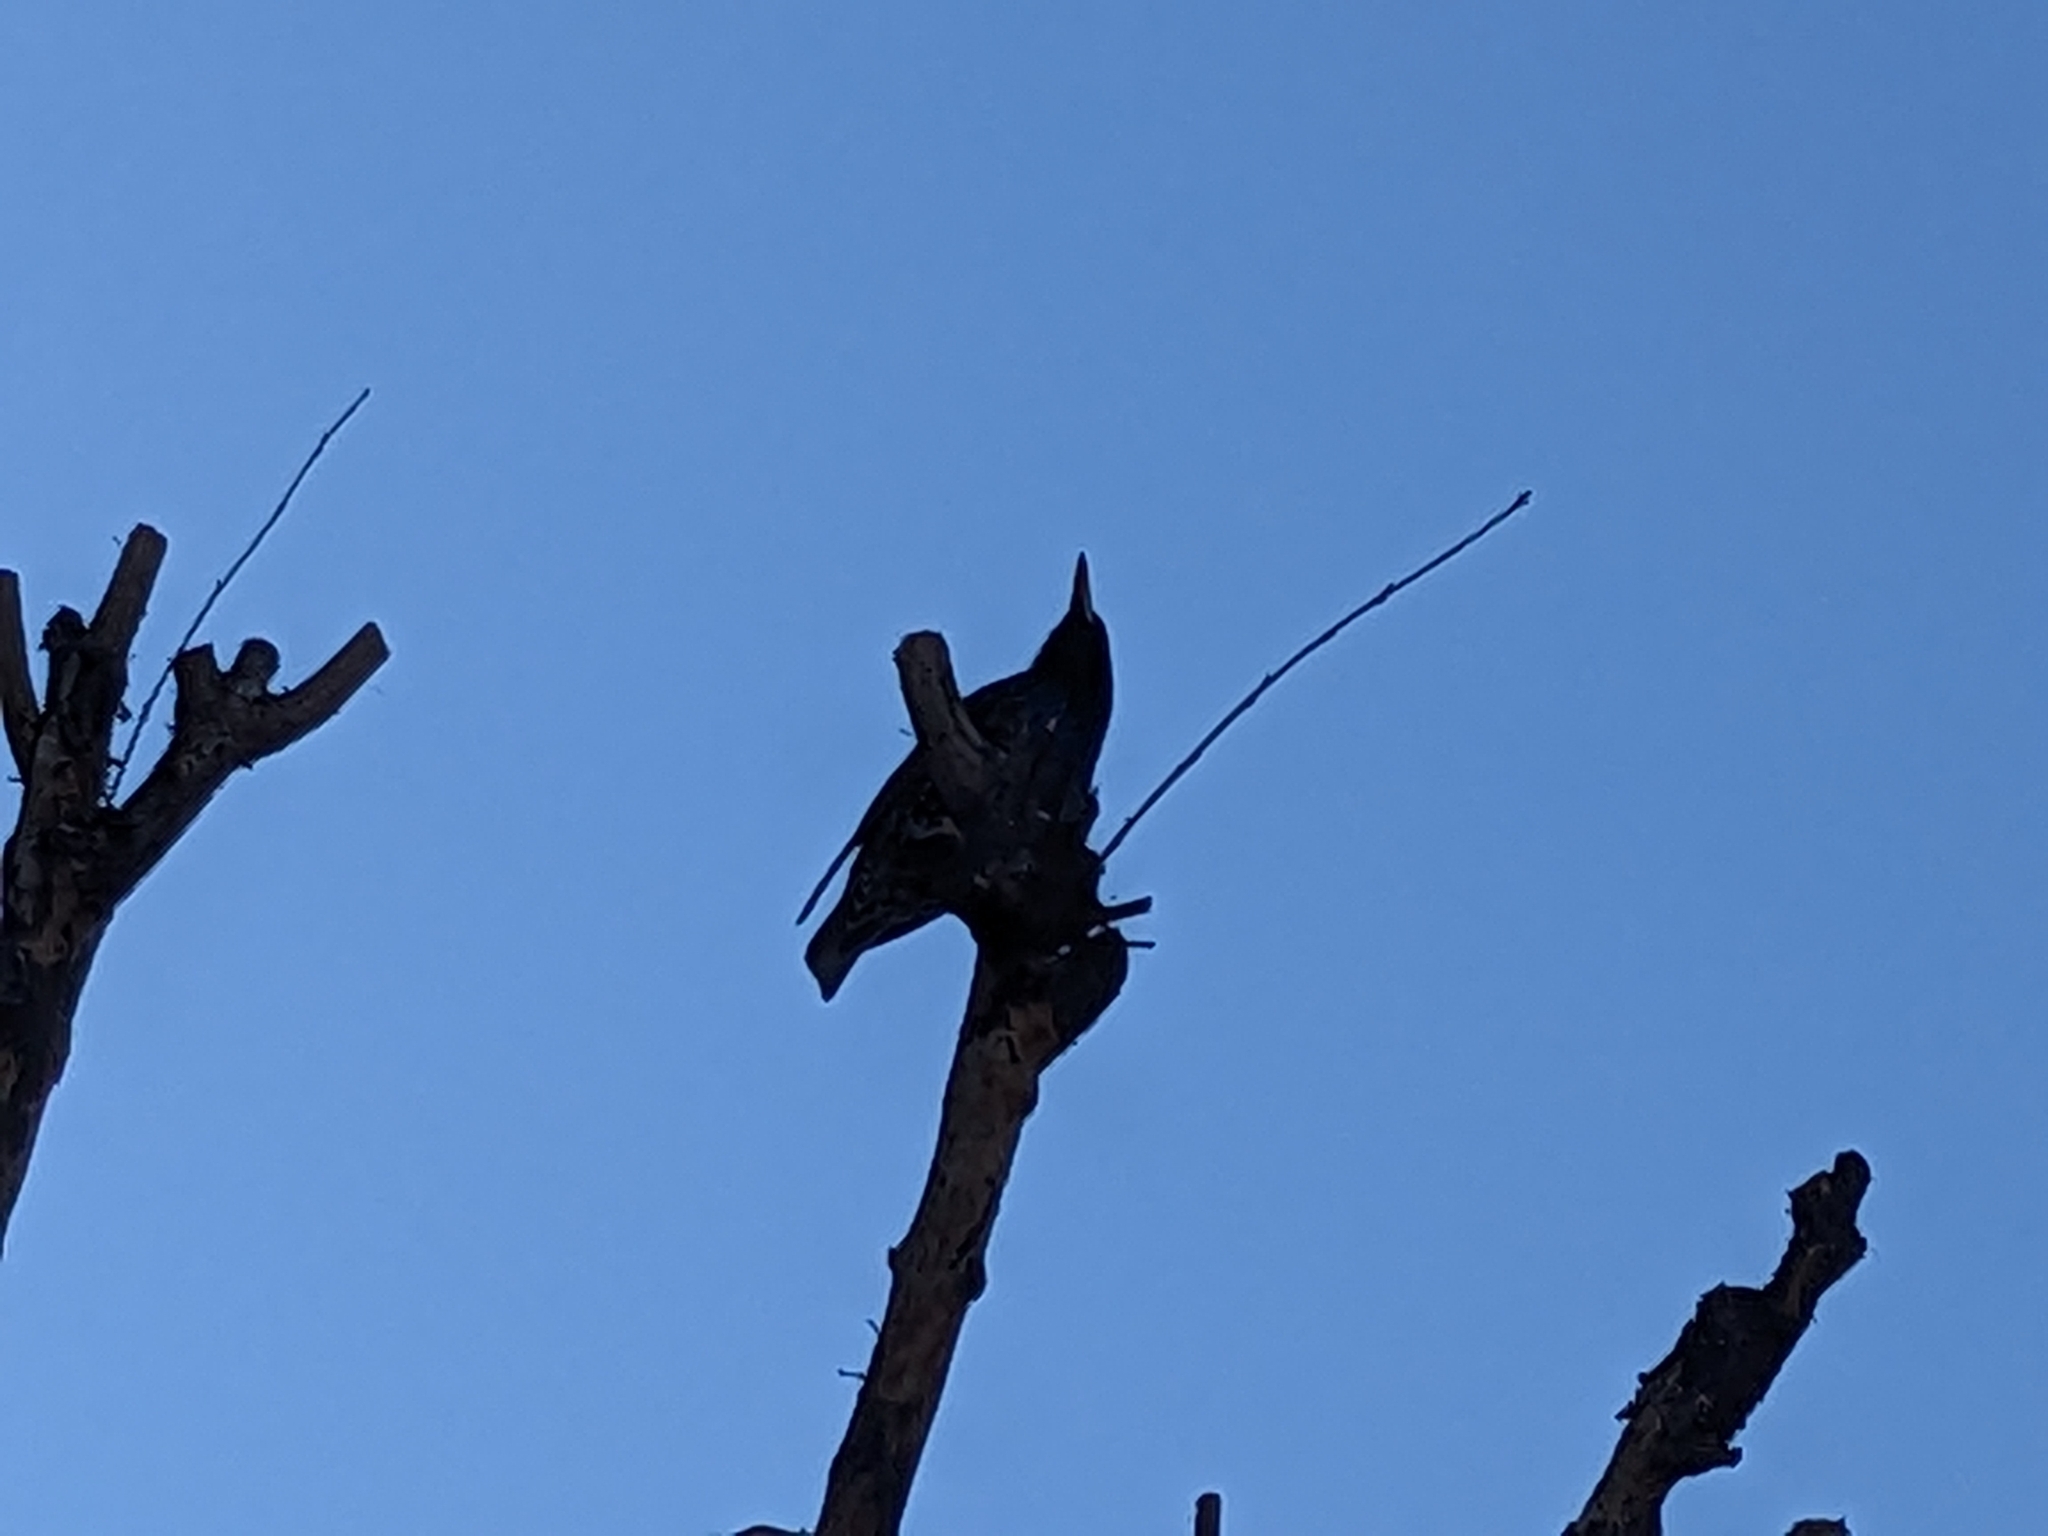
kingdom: Animalia
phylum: Chordata
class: Aves
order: Passeriformes
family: Sturnidae
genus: Sturnus
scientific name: Sturnus vulgaris
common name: Common starling
